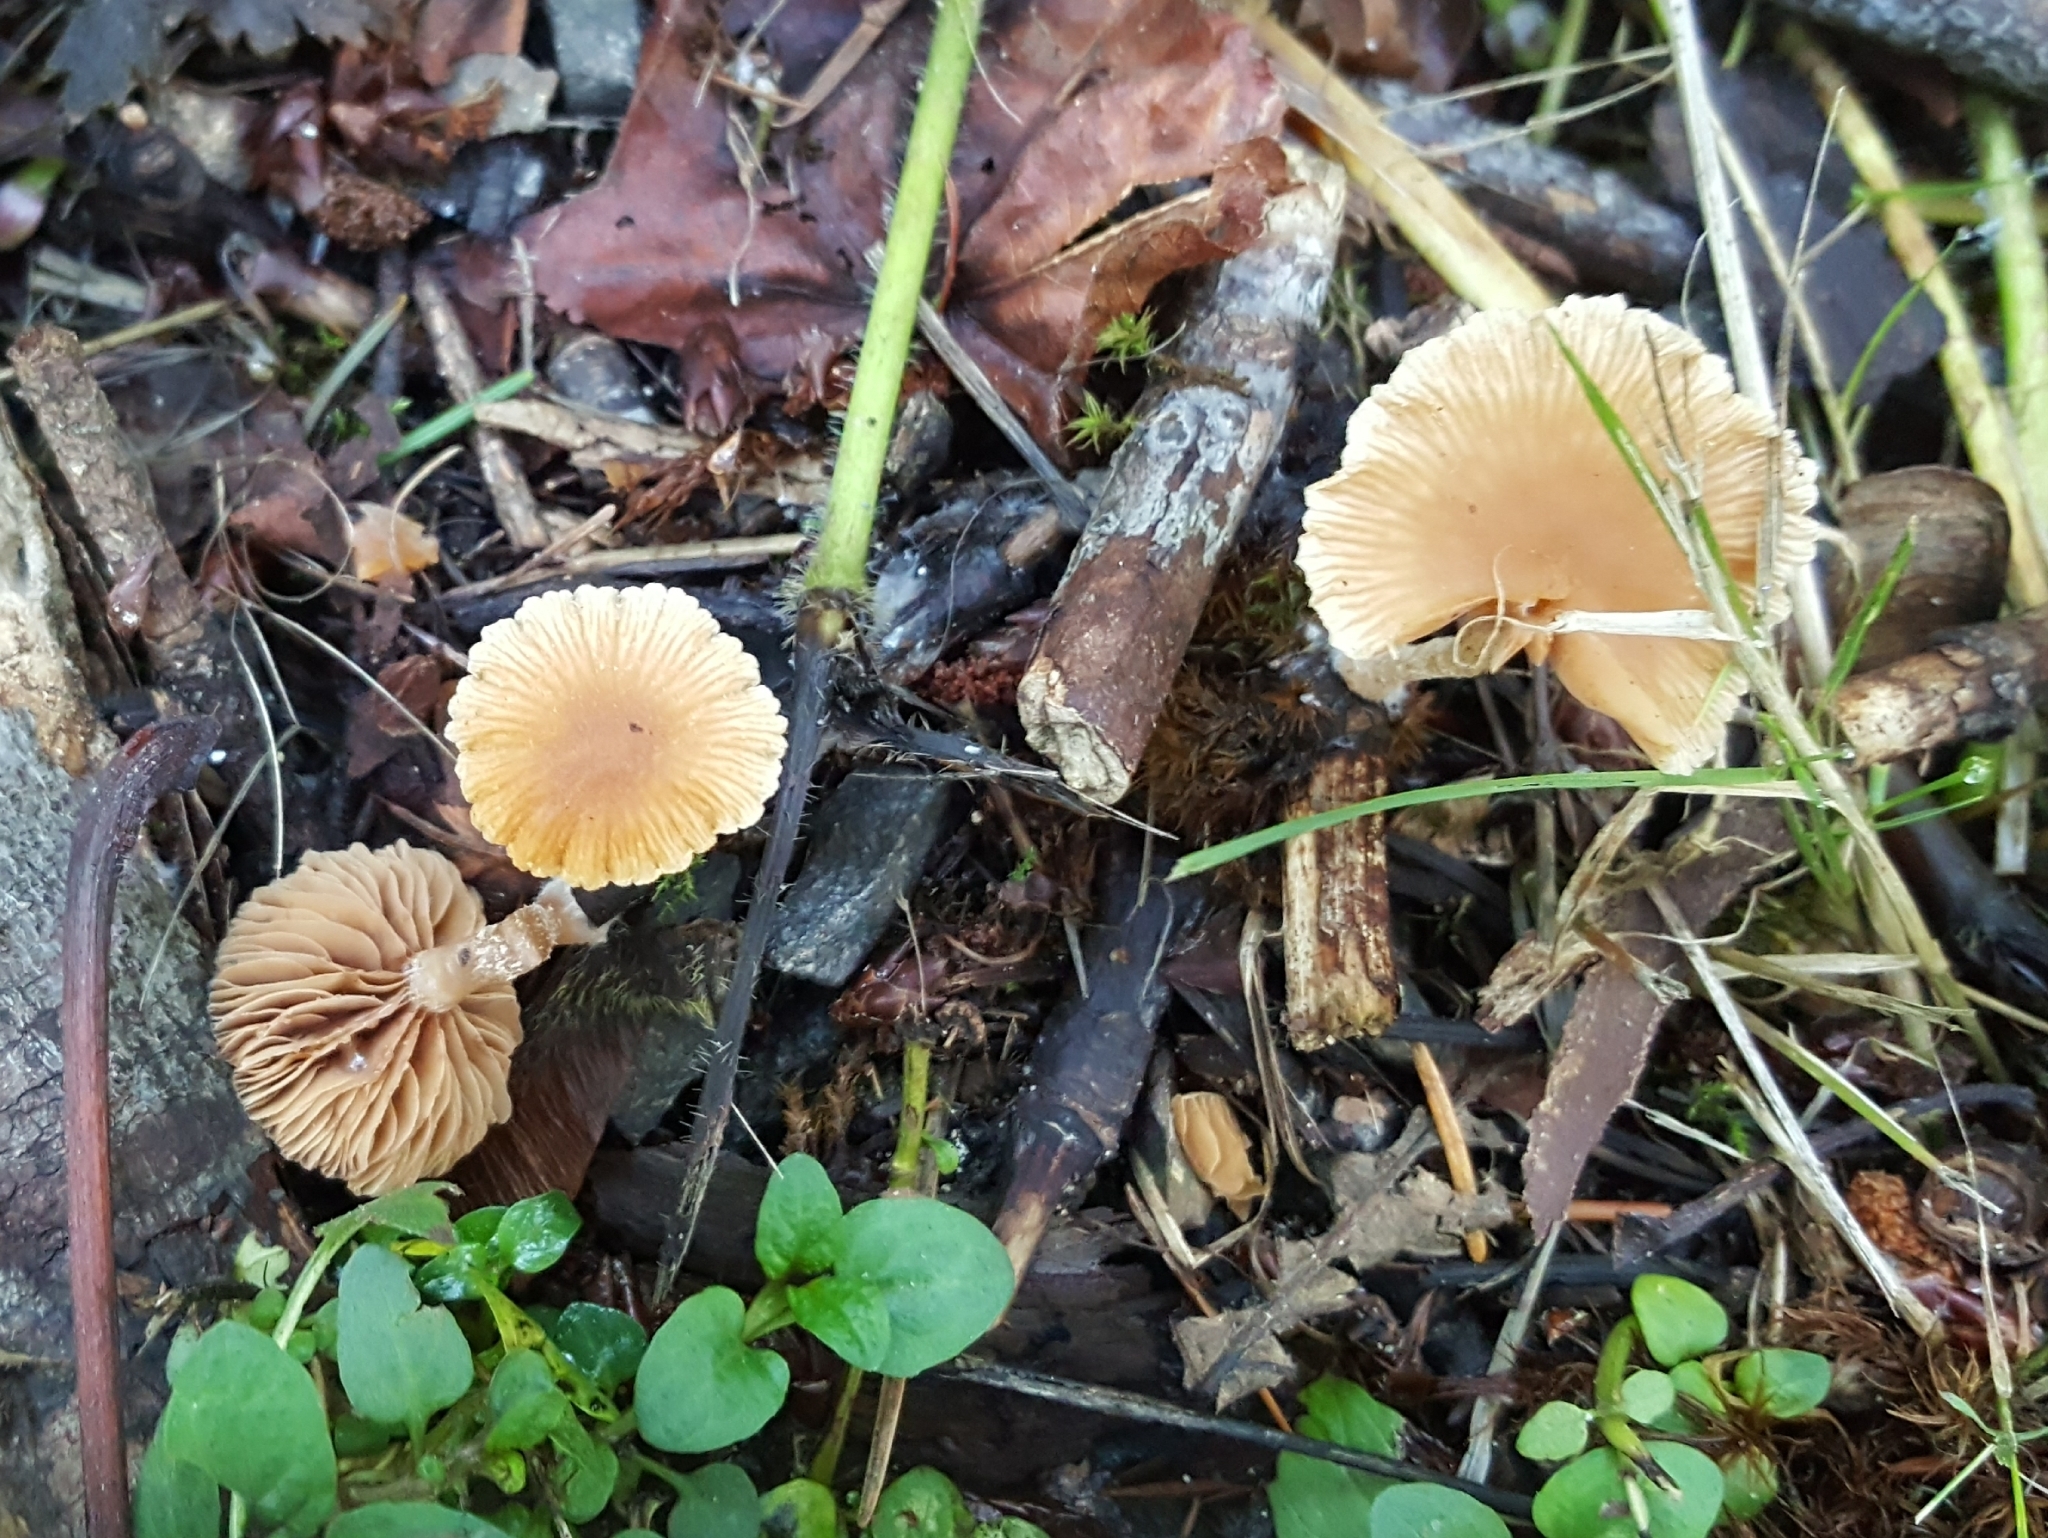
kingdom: Fungi
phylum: Basidiomycota
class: Agaricomycetes
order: Agaricales
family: Tubariaceae
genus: Tubaria
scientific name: Tubaria furfuracea
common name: Scurfy twiglet
